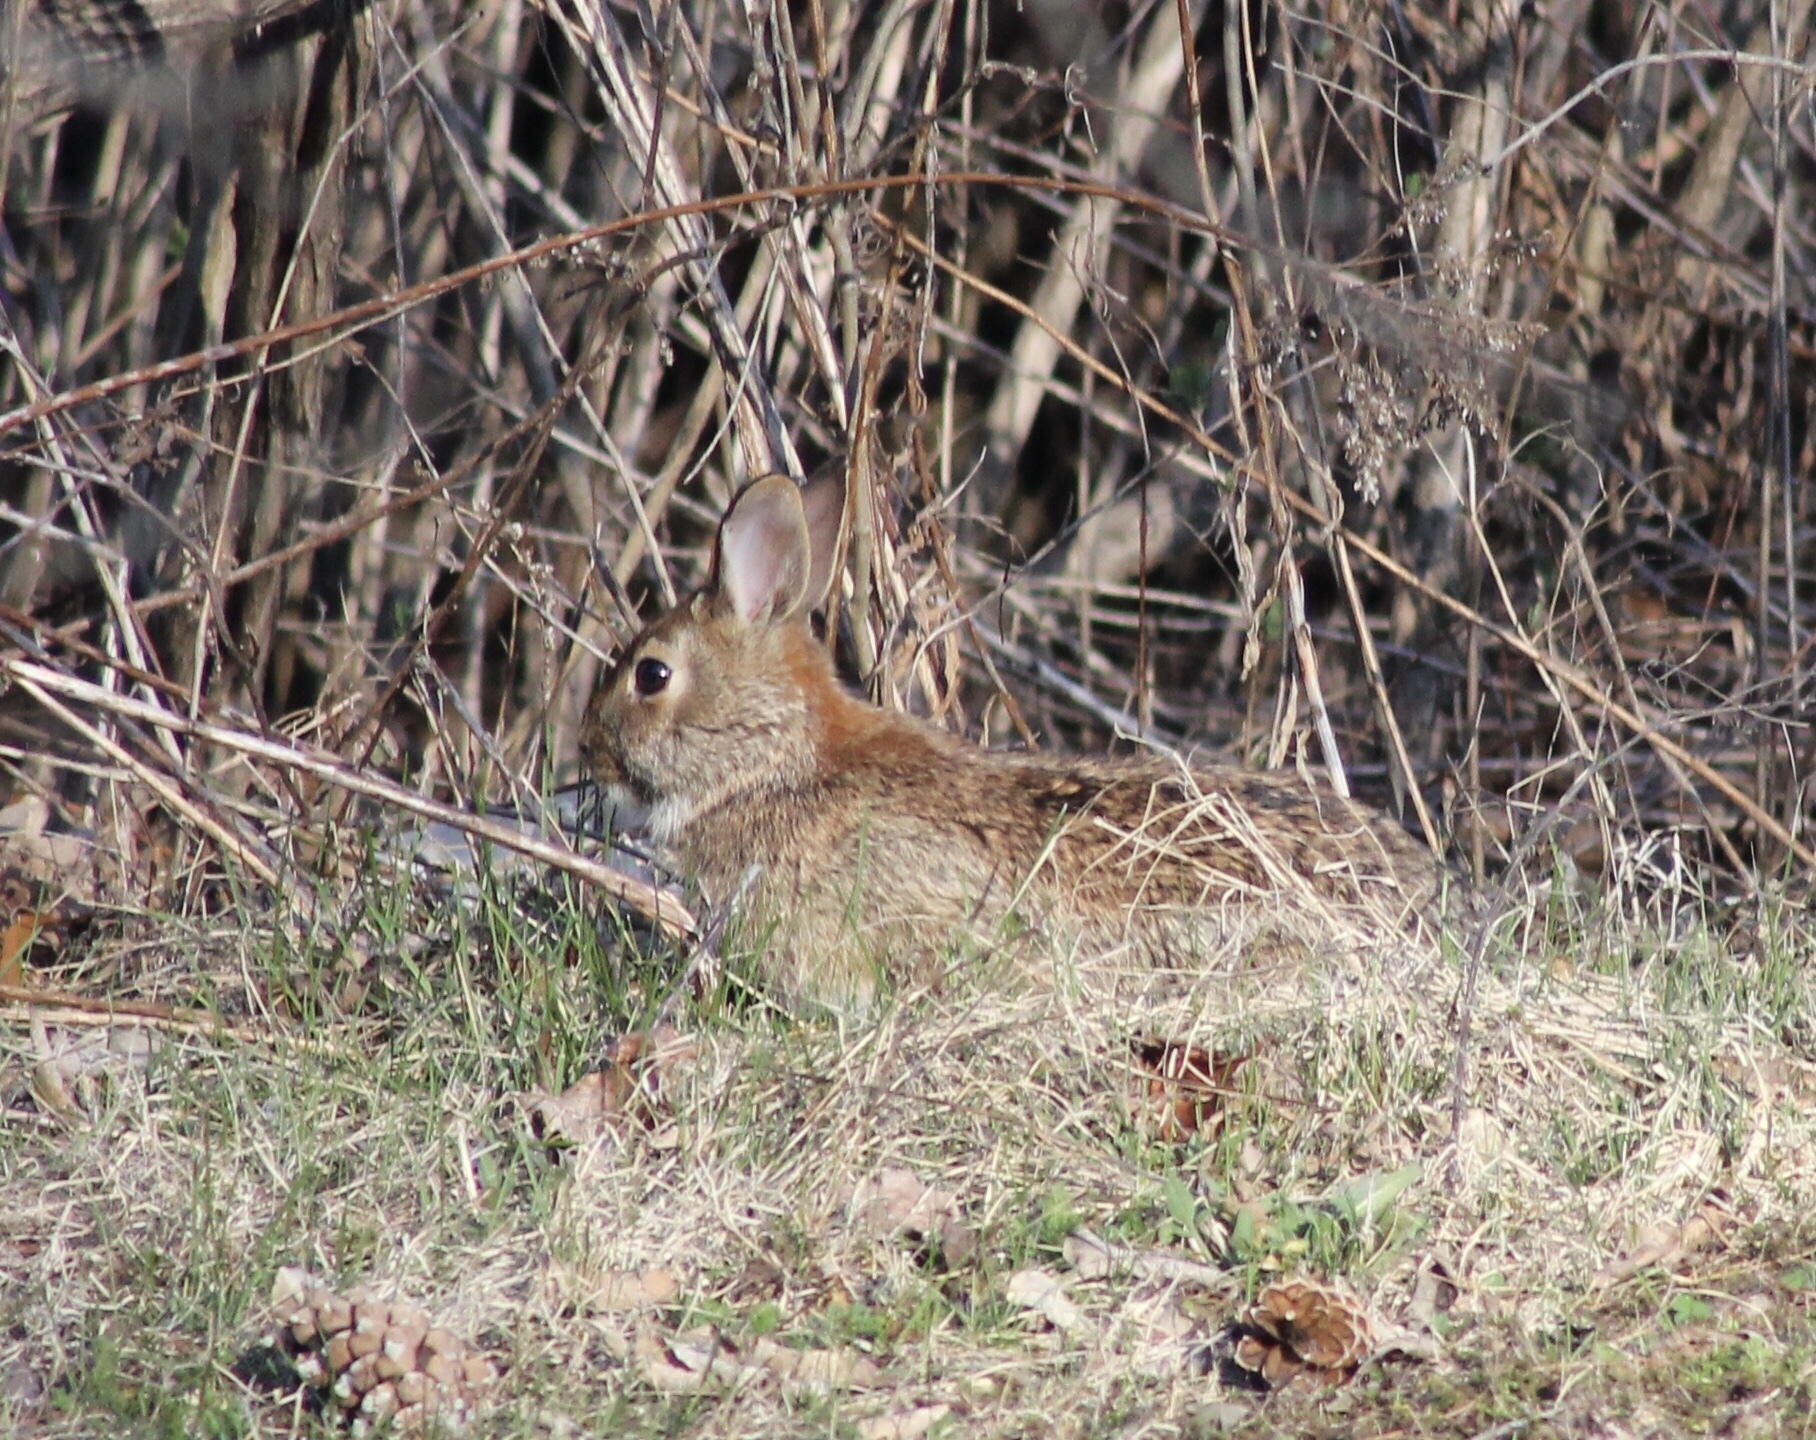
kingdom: Animalia
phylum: Chordata
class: Mammalia
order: Lagomorpha
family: Leporidae
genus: Sylvilagus
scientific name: Sylvilagus floridanus
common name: Eastern cottontail
